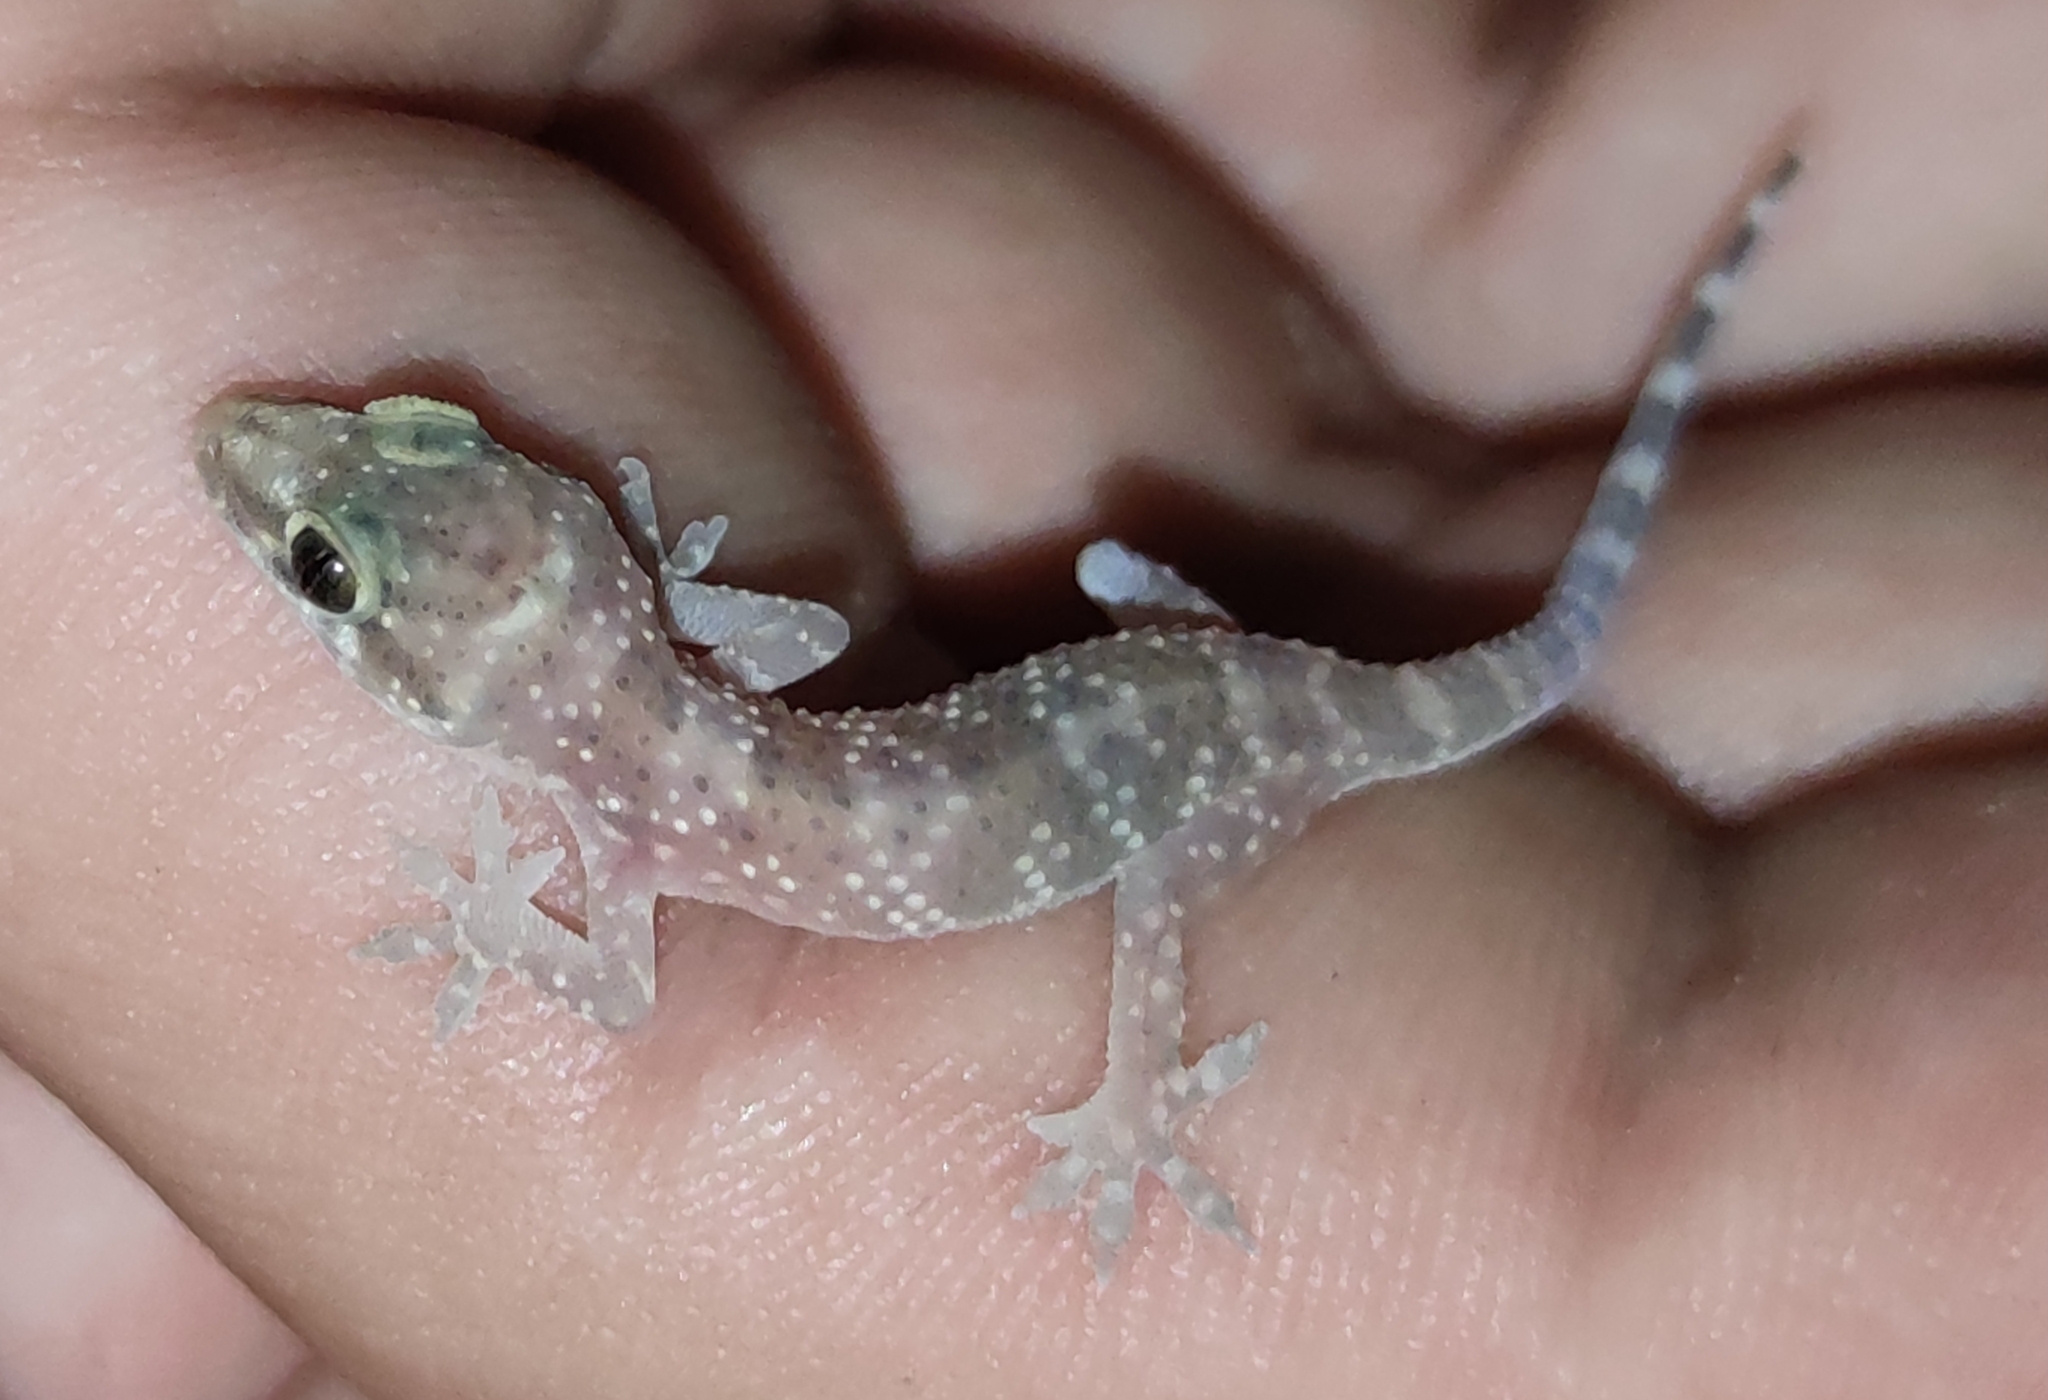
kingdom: Animalia
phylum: Chordata
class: Squamata
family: Gekkonidae
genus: Hemidactylus
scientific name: Hemidactylus turcicus
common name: Turkish gecko
